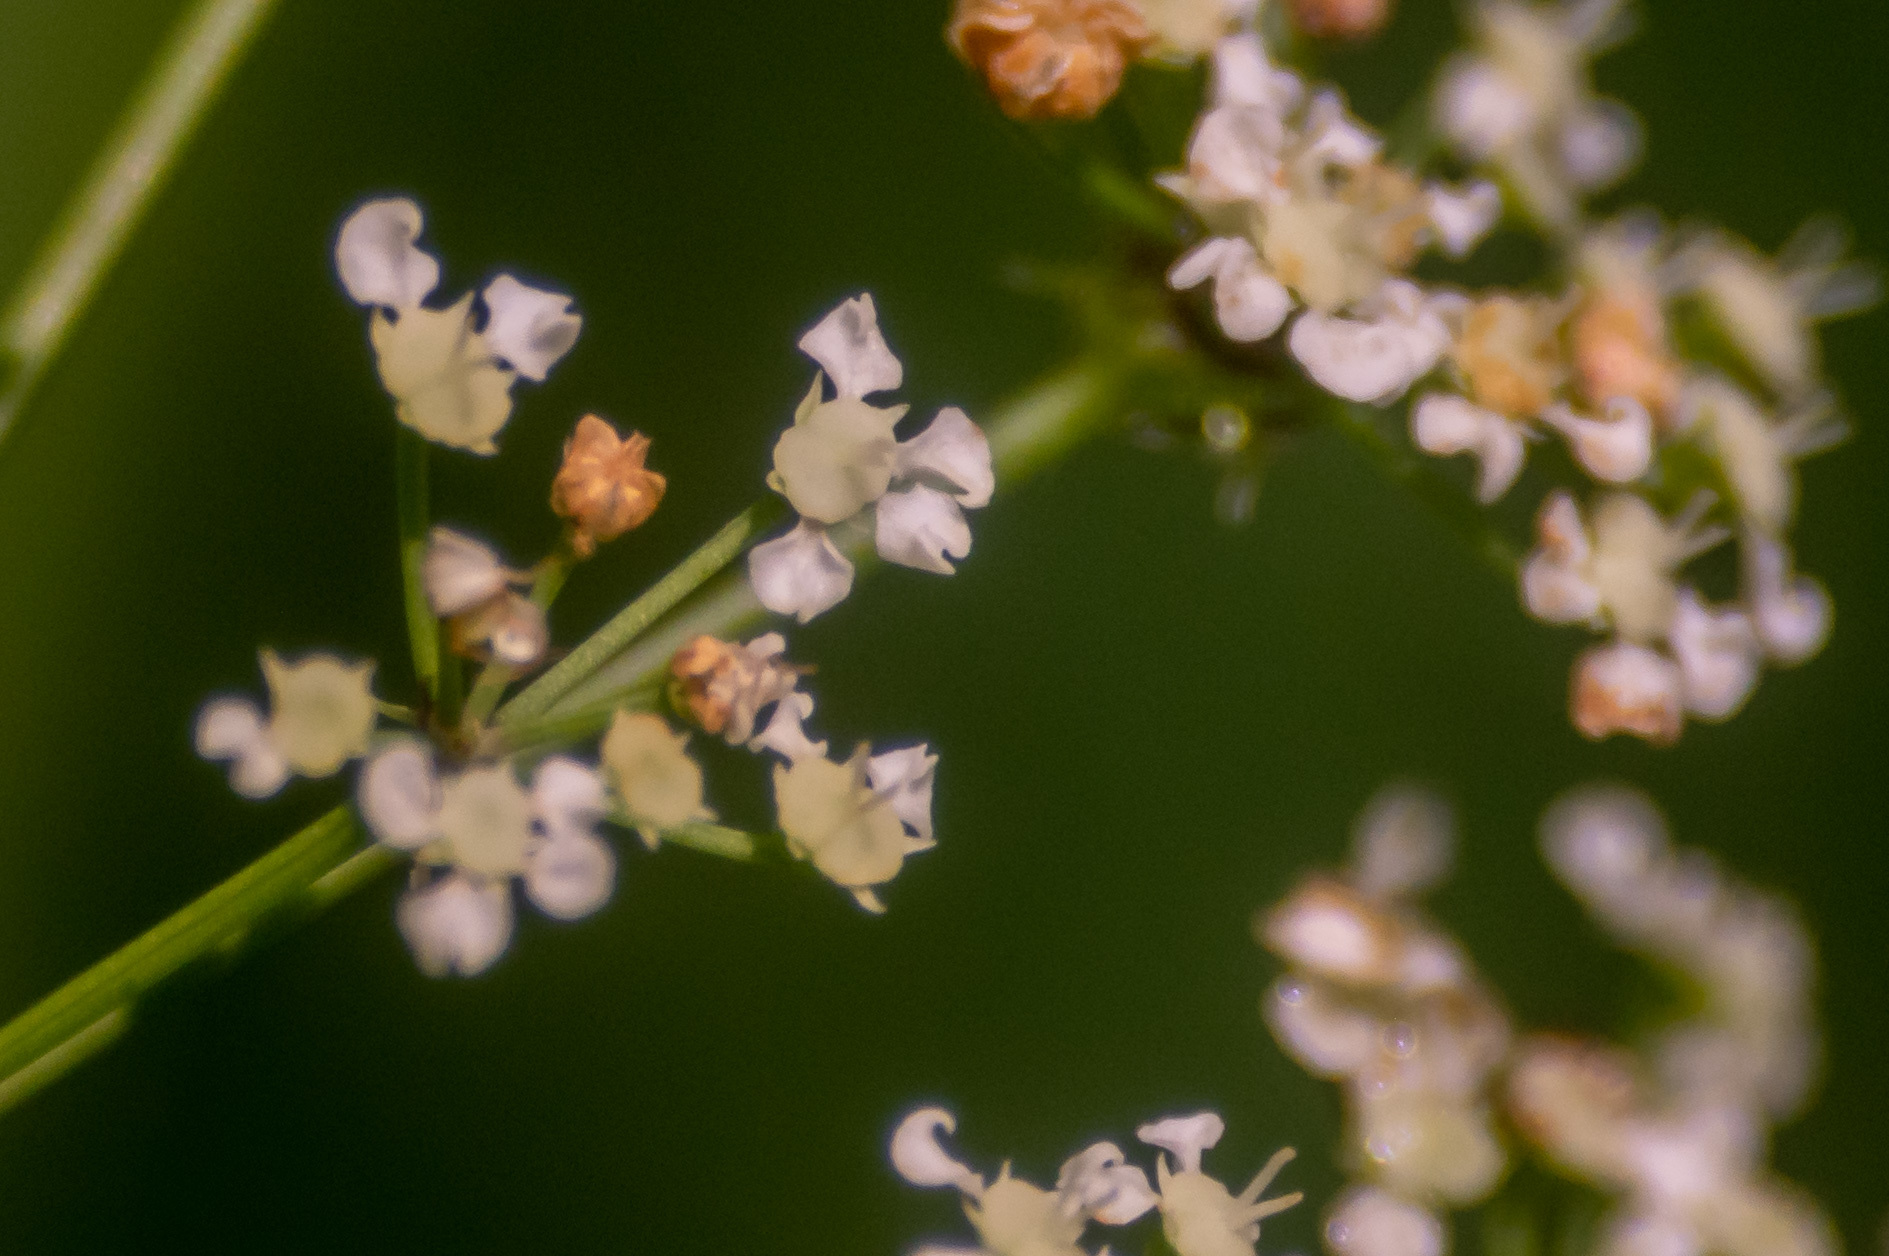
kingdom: Plantae
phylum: Tracheophyta
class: Magnoliopsida
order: Apiales
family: Apiaceae
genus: Cicuta
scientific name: Cicuta maculata
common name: Spotted cowbane
